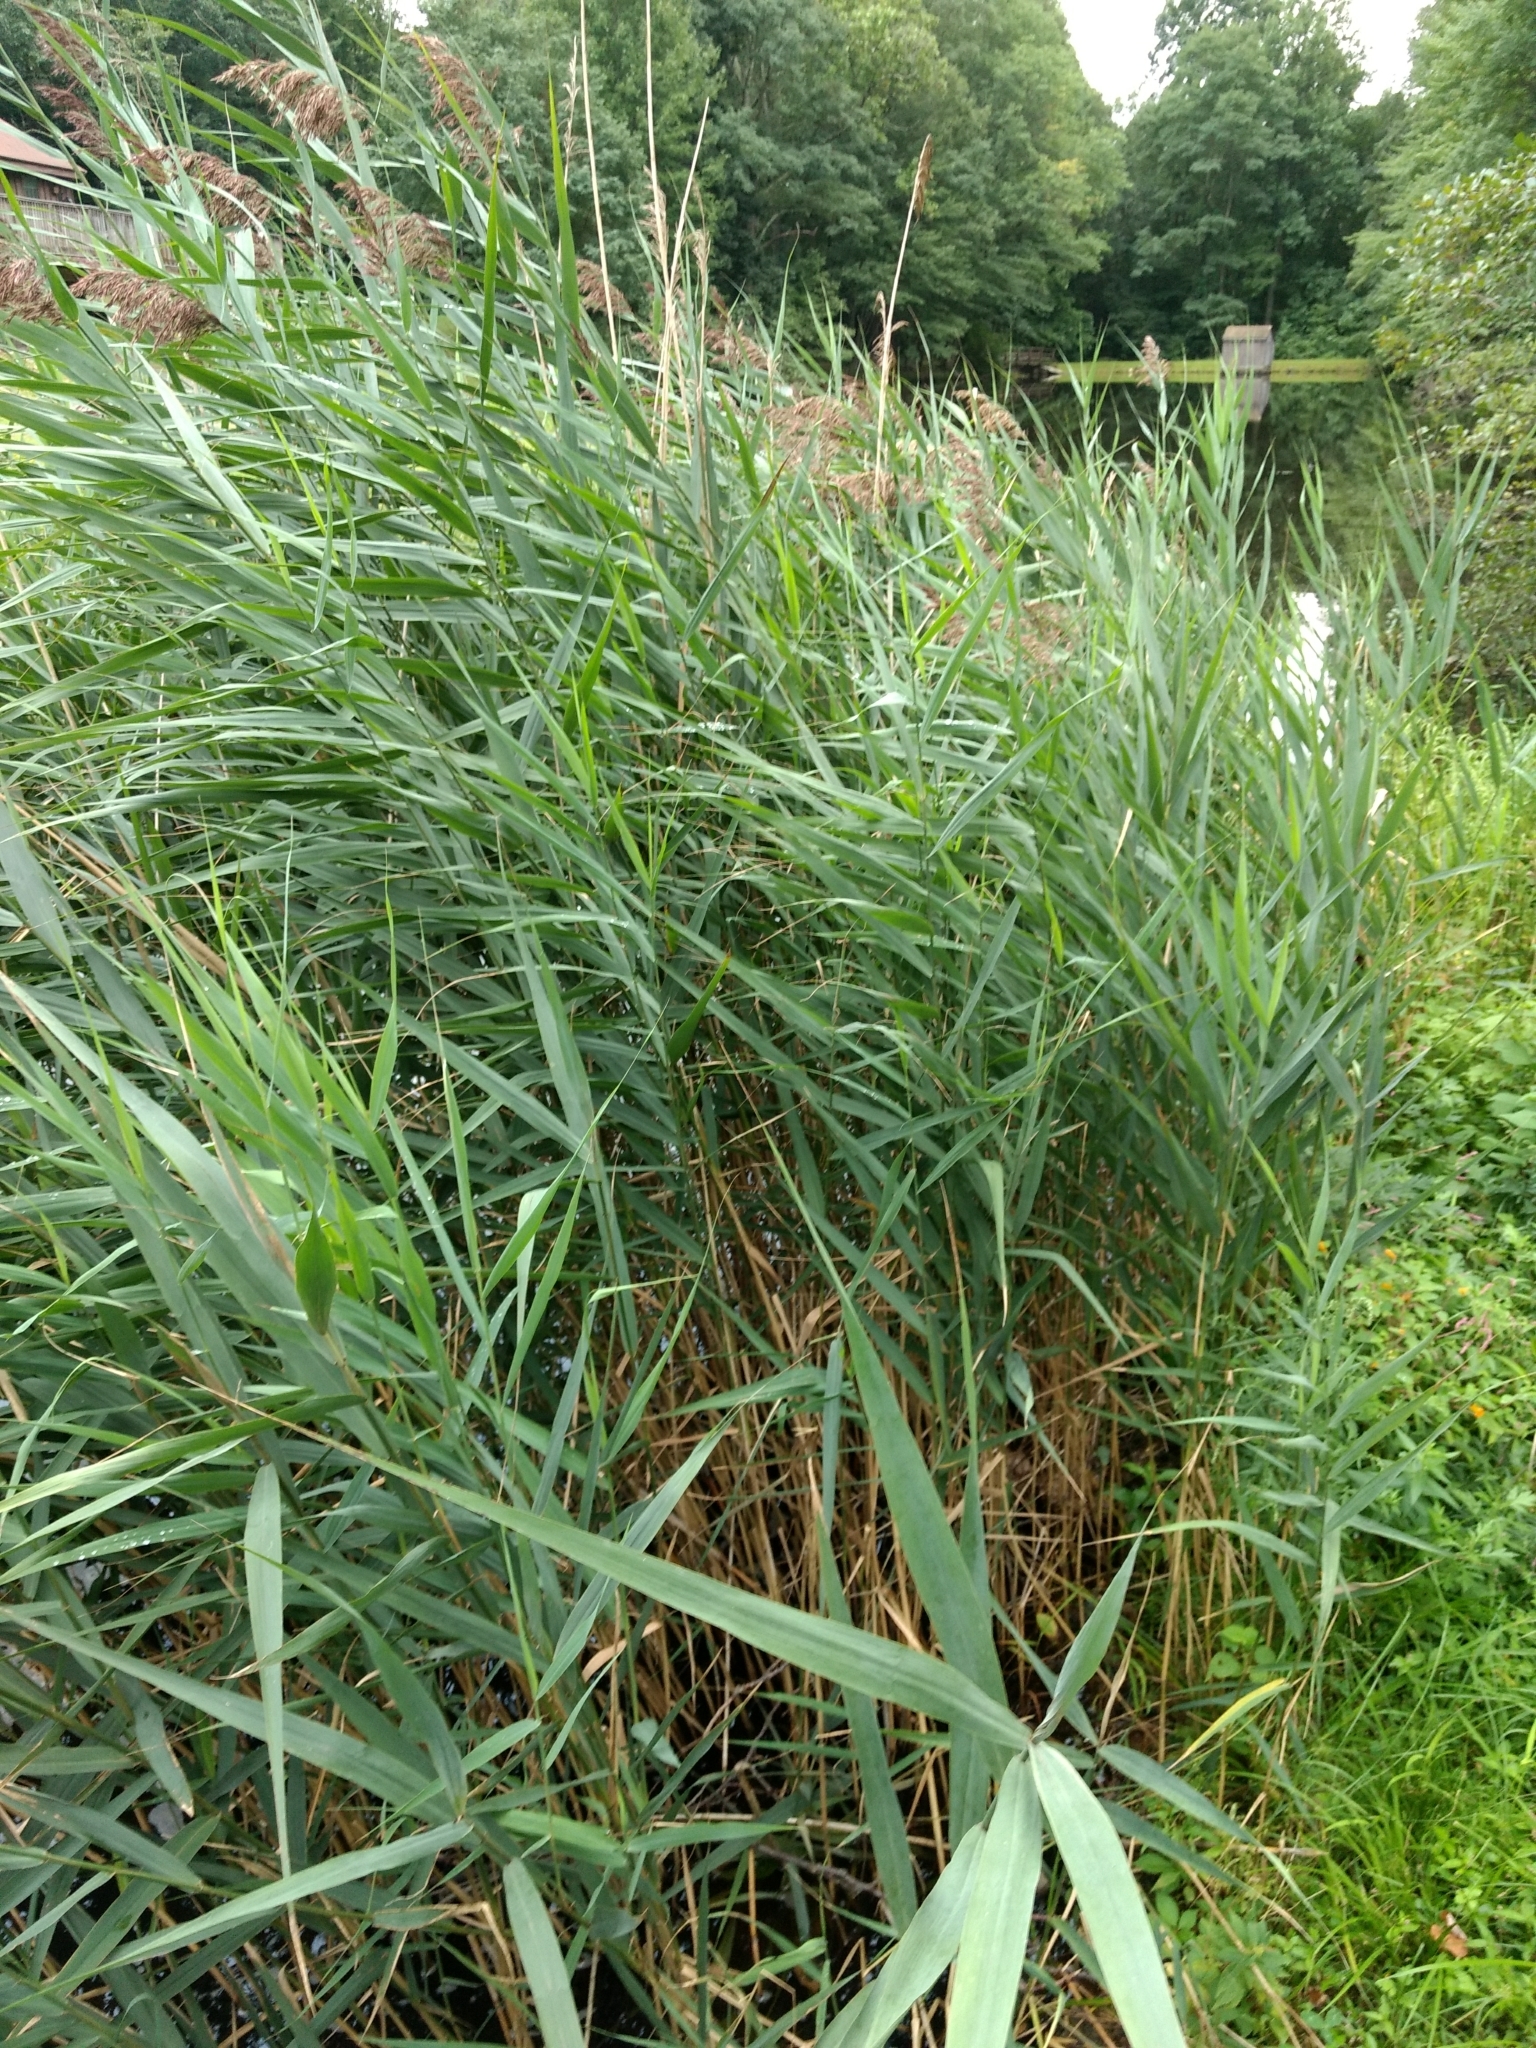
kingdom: Plantae
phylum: Tracheophyta
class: Liliopsida
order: Poales
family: Poaceae
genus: Phragmites
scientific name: Phragmites australis
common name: Common reed
